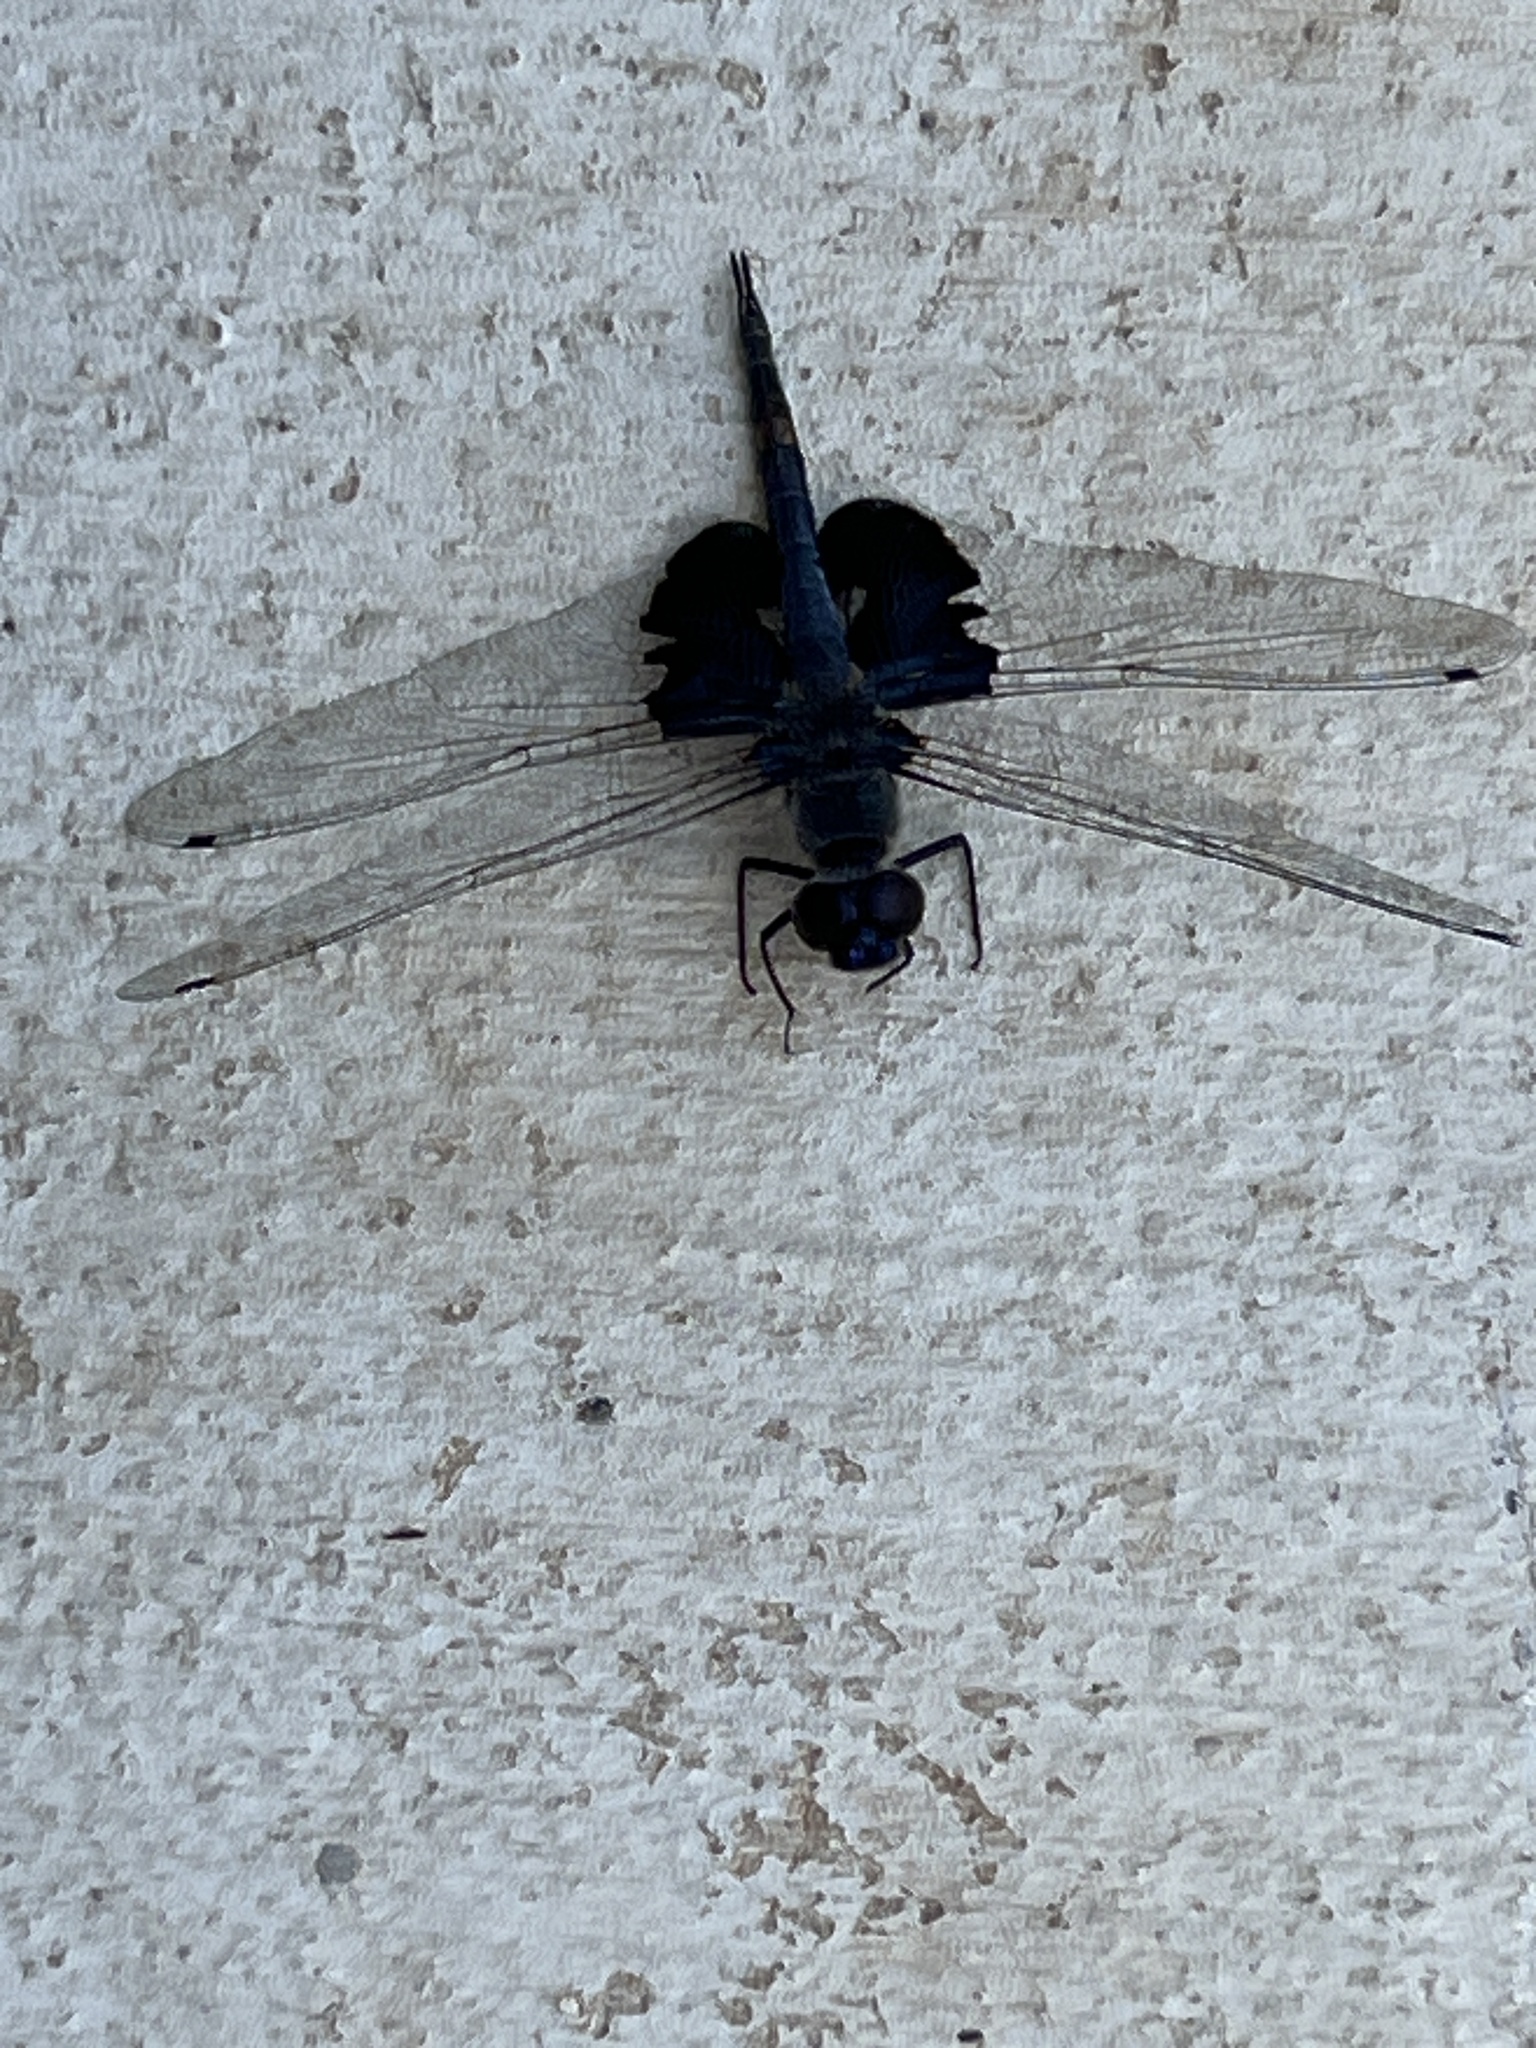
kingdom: Animalia
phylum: Arthropoda
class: Insecta
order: Odonata
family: Libellulidae
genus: Tramea
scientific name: Tramea lacerata
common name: Black saddlebags
